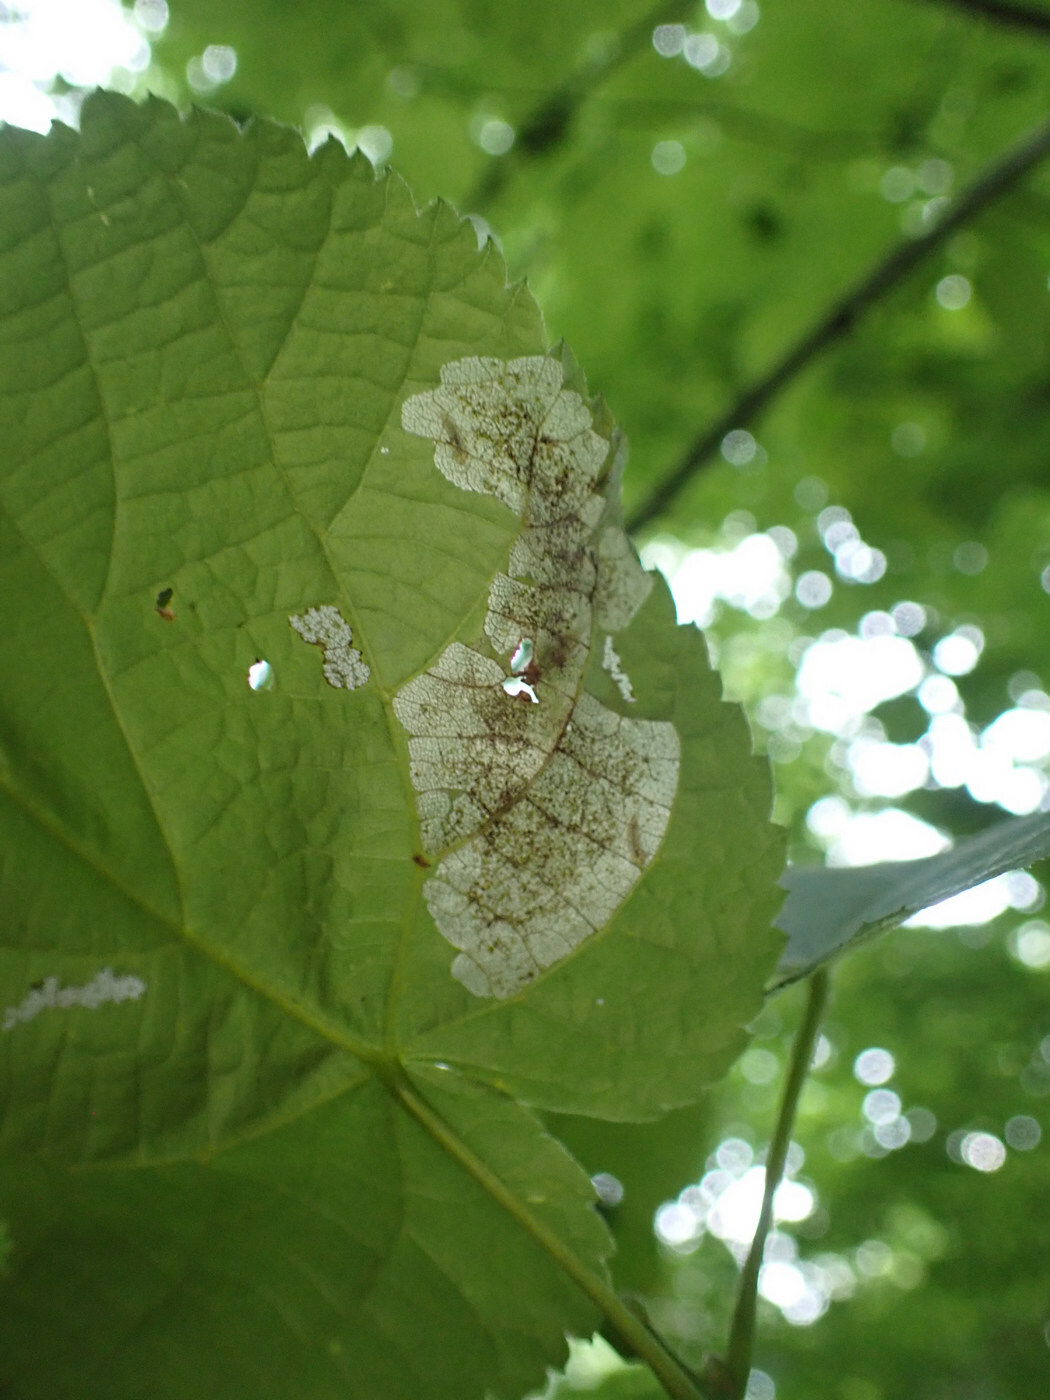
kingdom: Animalia
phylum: Arthropoda
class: Insecta
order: Coleoptera
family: Chrysomelidae
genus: Baliosus
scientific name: Baliosus nervosus
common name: Basswood leaf miner
